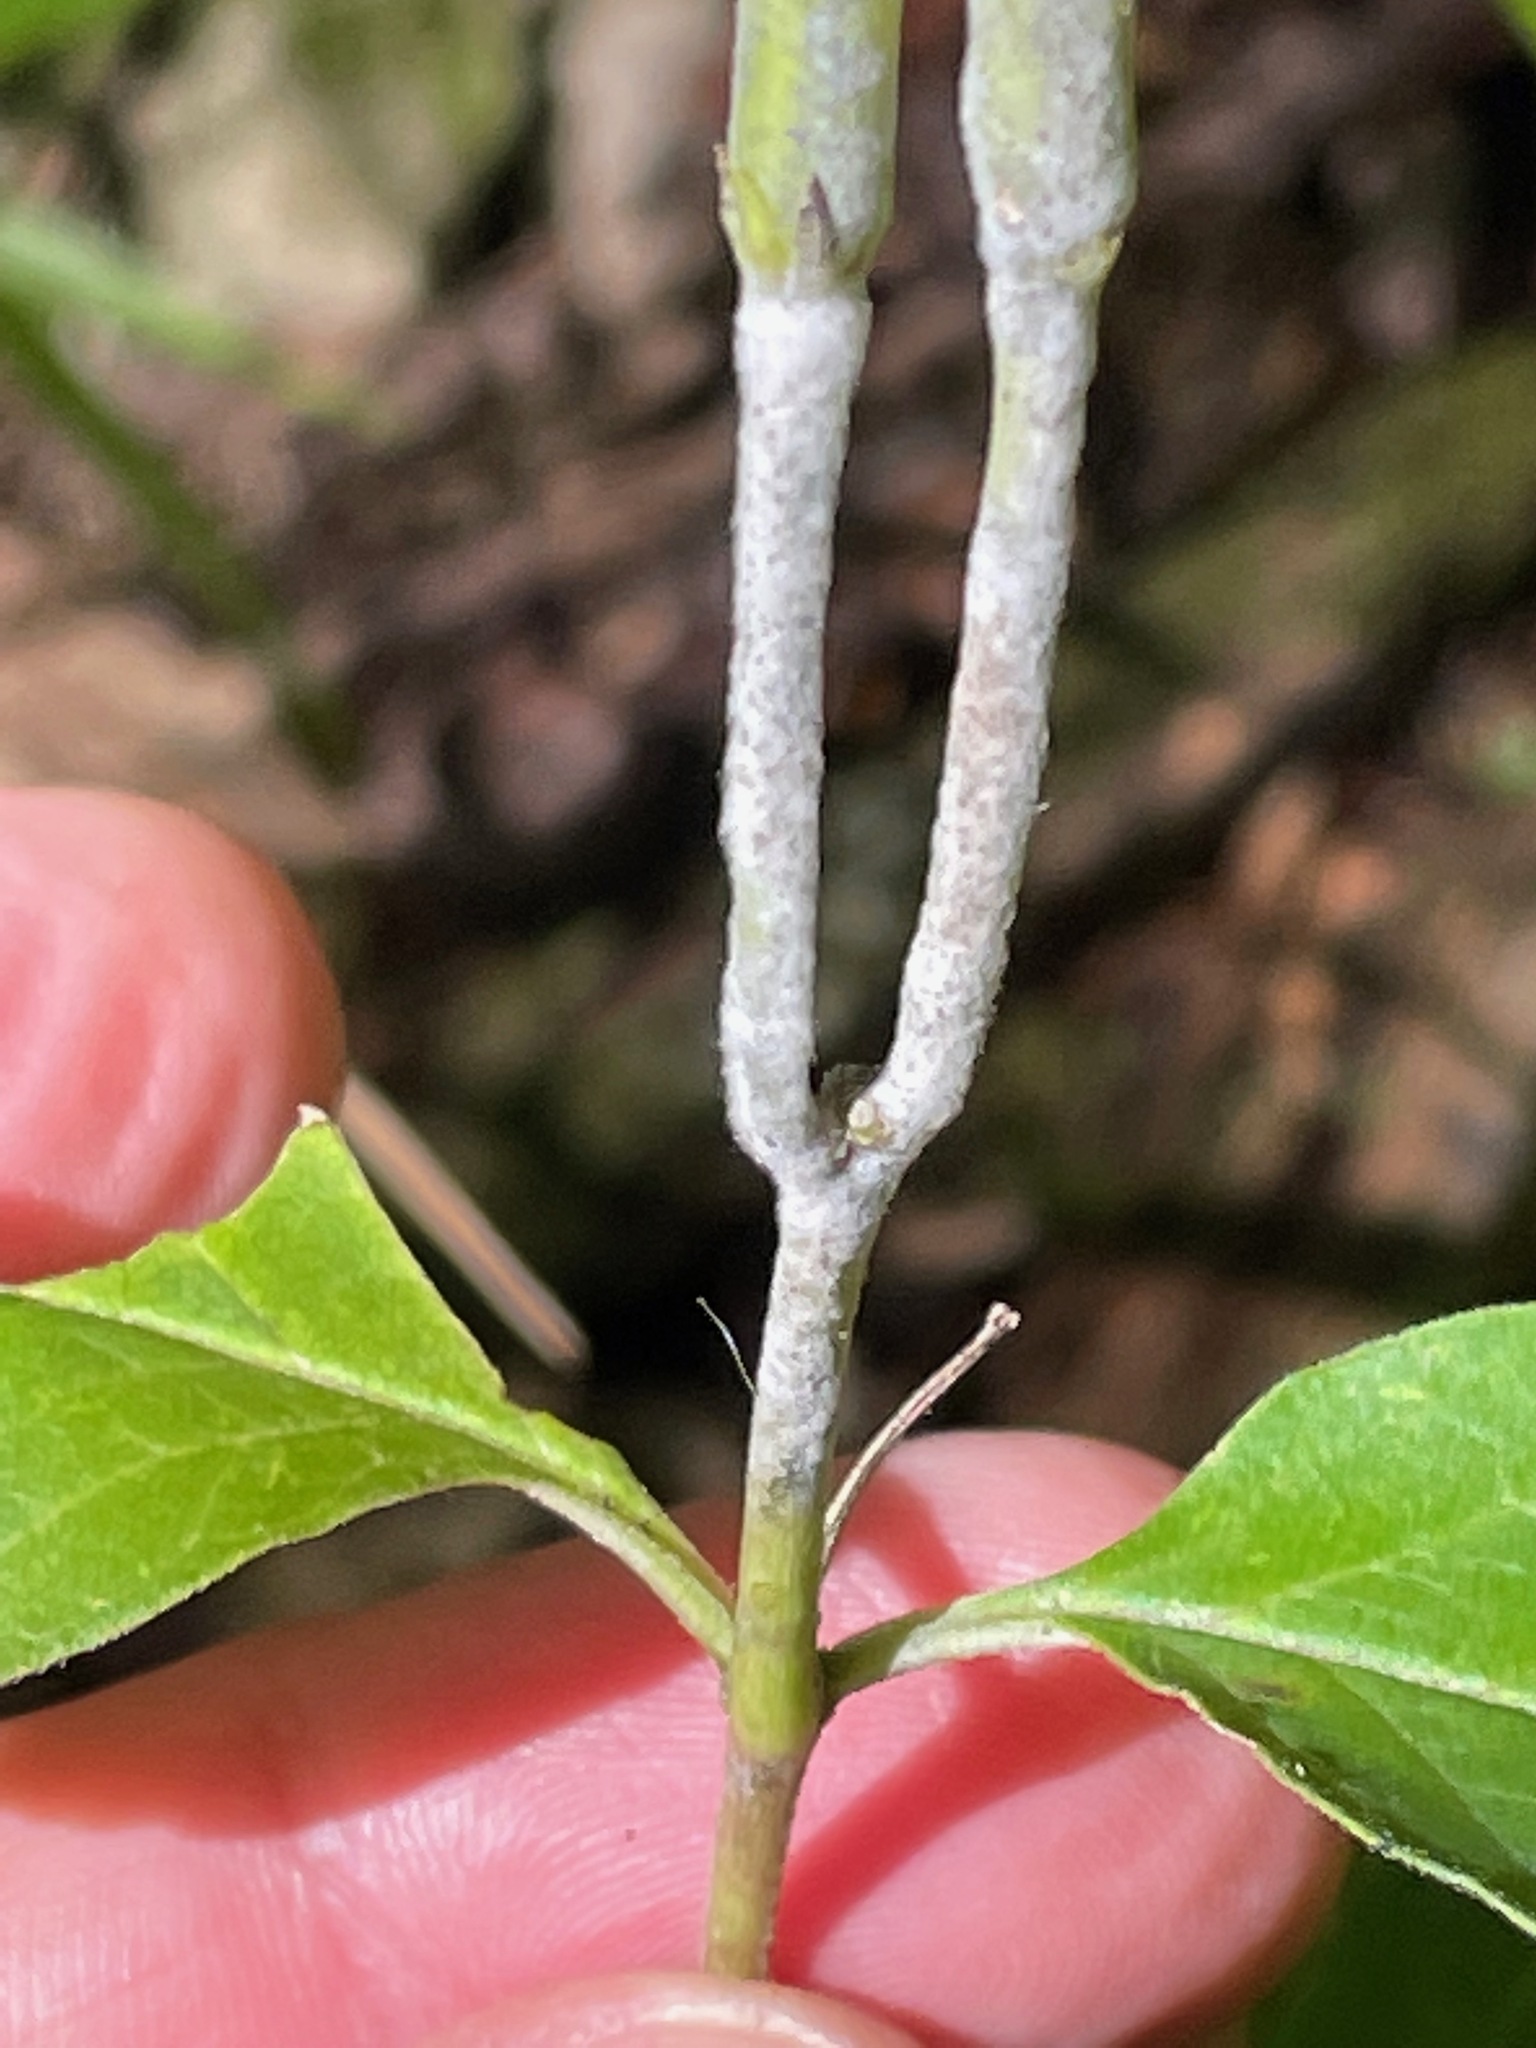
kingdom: Plantae
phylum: Tracheophyta
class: Magnoliopsida
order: Gentianales
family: Apocynaceae
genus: Asclepias
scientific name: Asclepias quadrifolia
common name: Whorled milkweed
